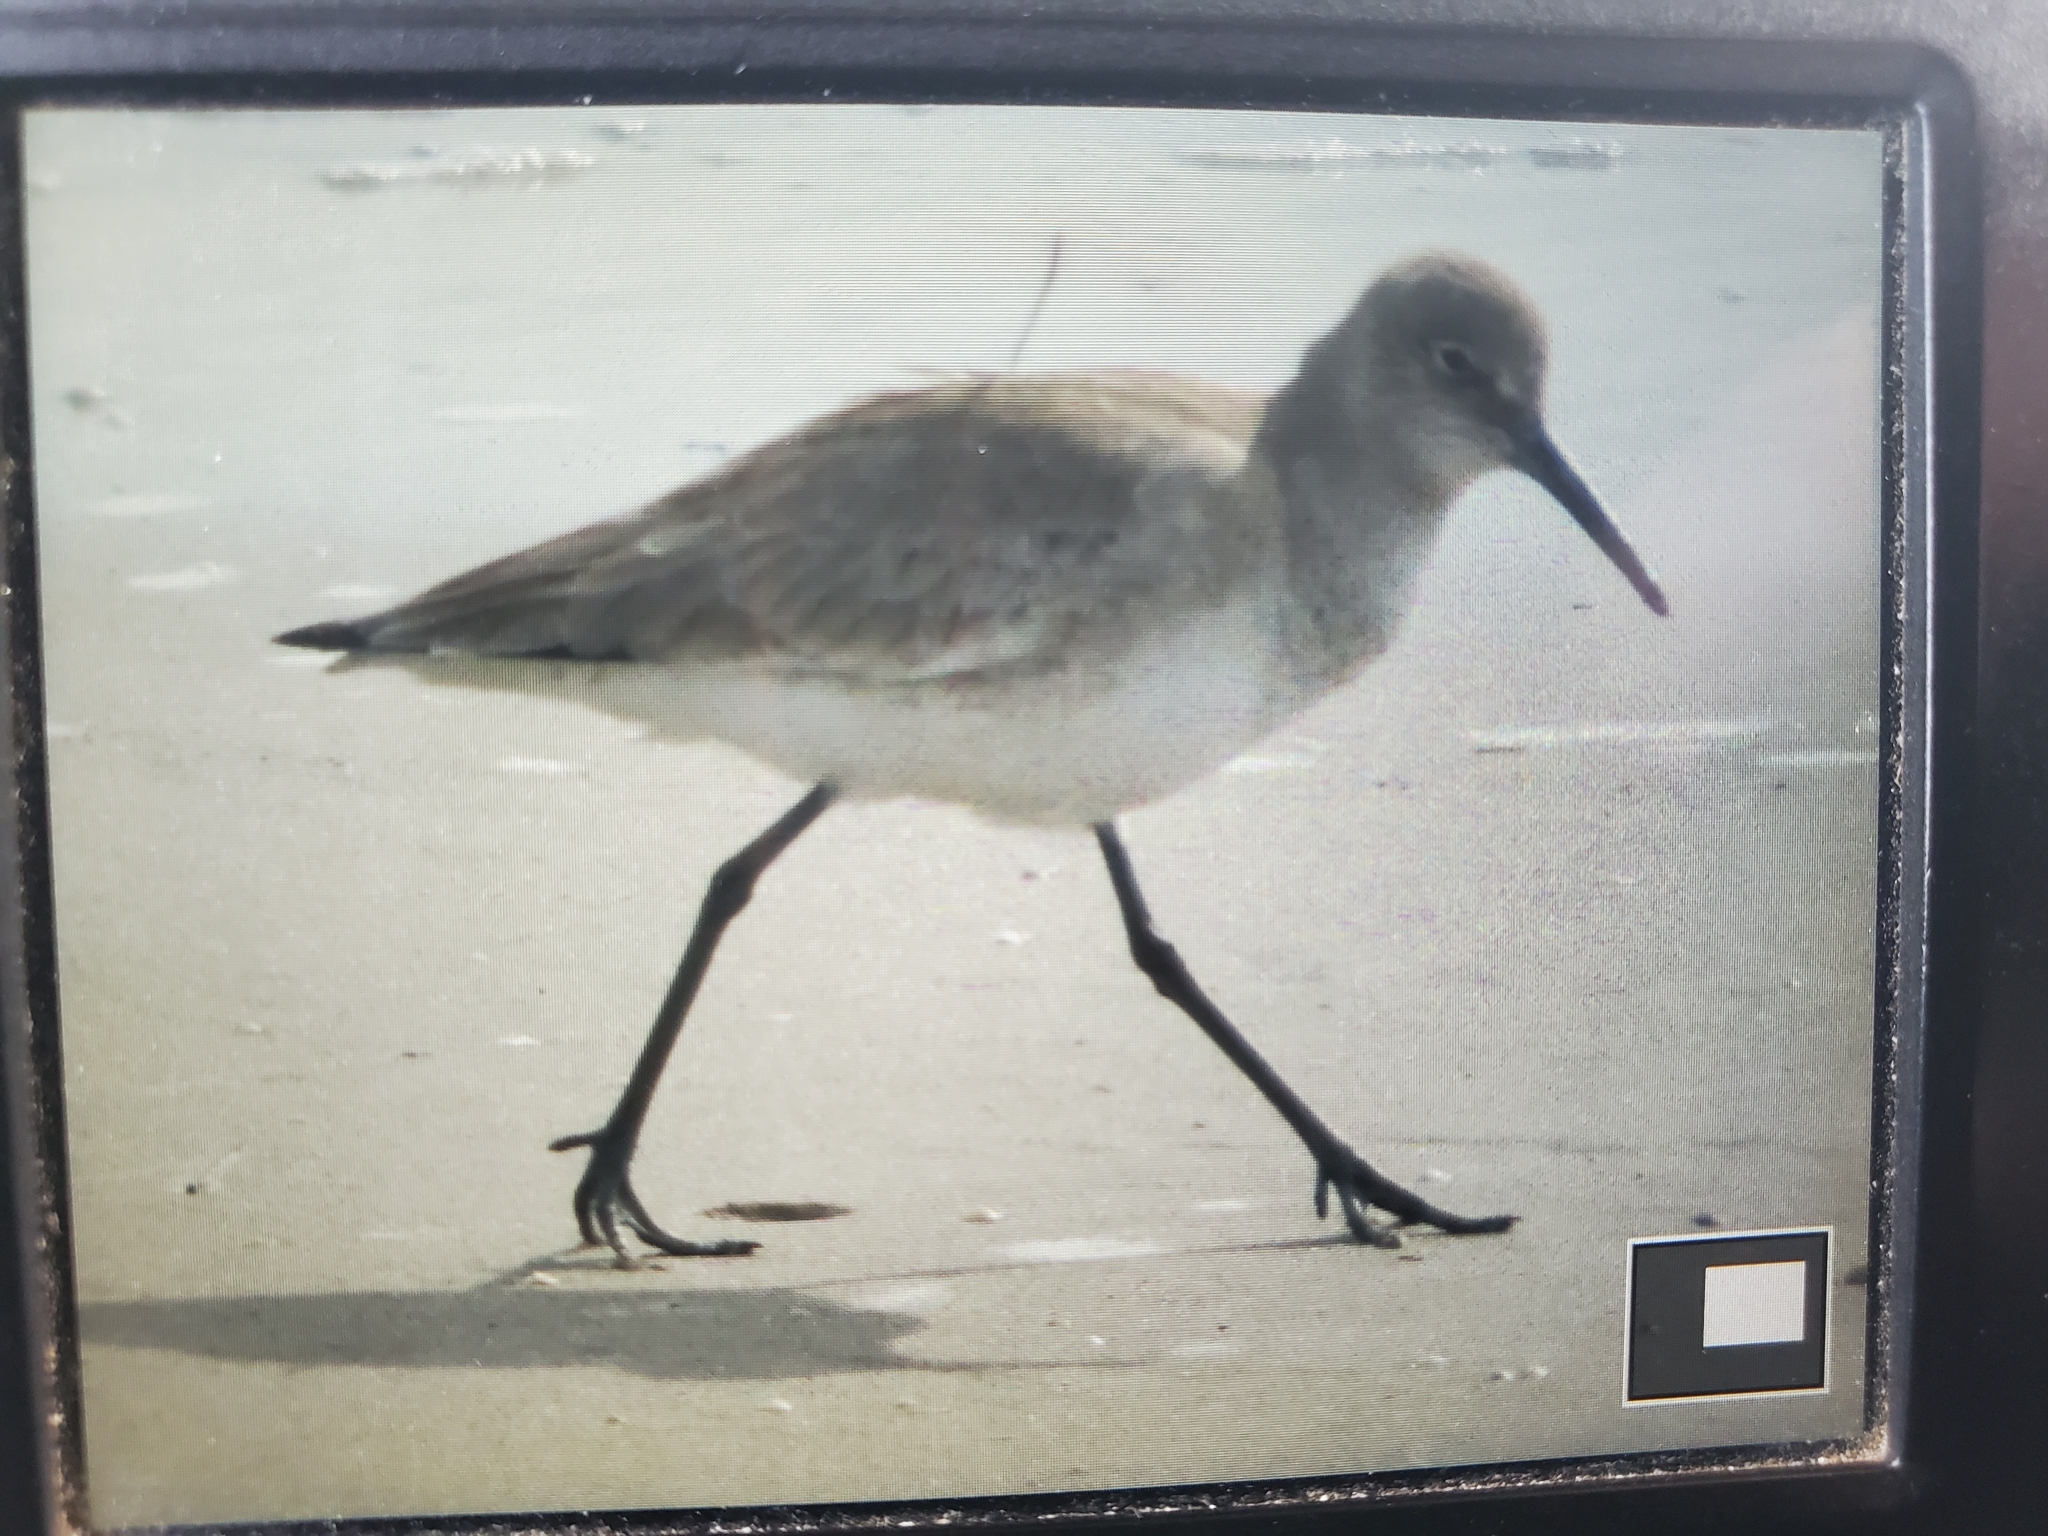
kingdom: Animalia
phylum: Chordata
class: Aves
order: Charadriiformes
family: Scolopacidae
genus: Tringa
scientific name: Tringa semipalmata
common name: Willet
